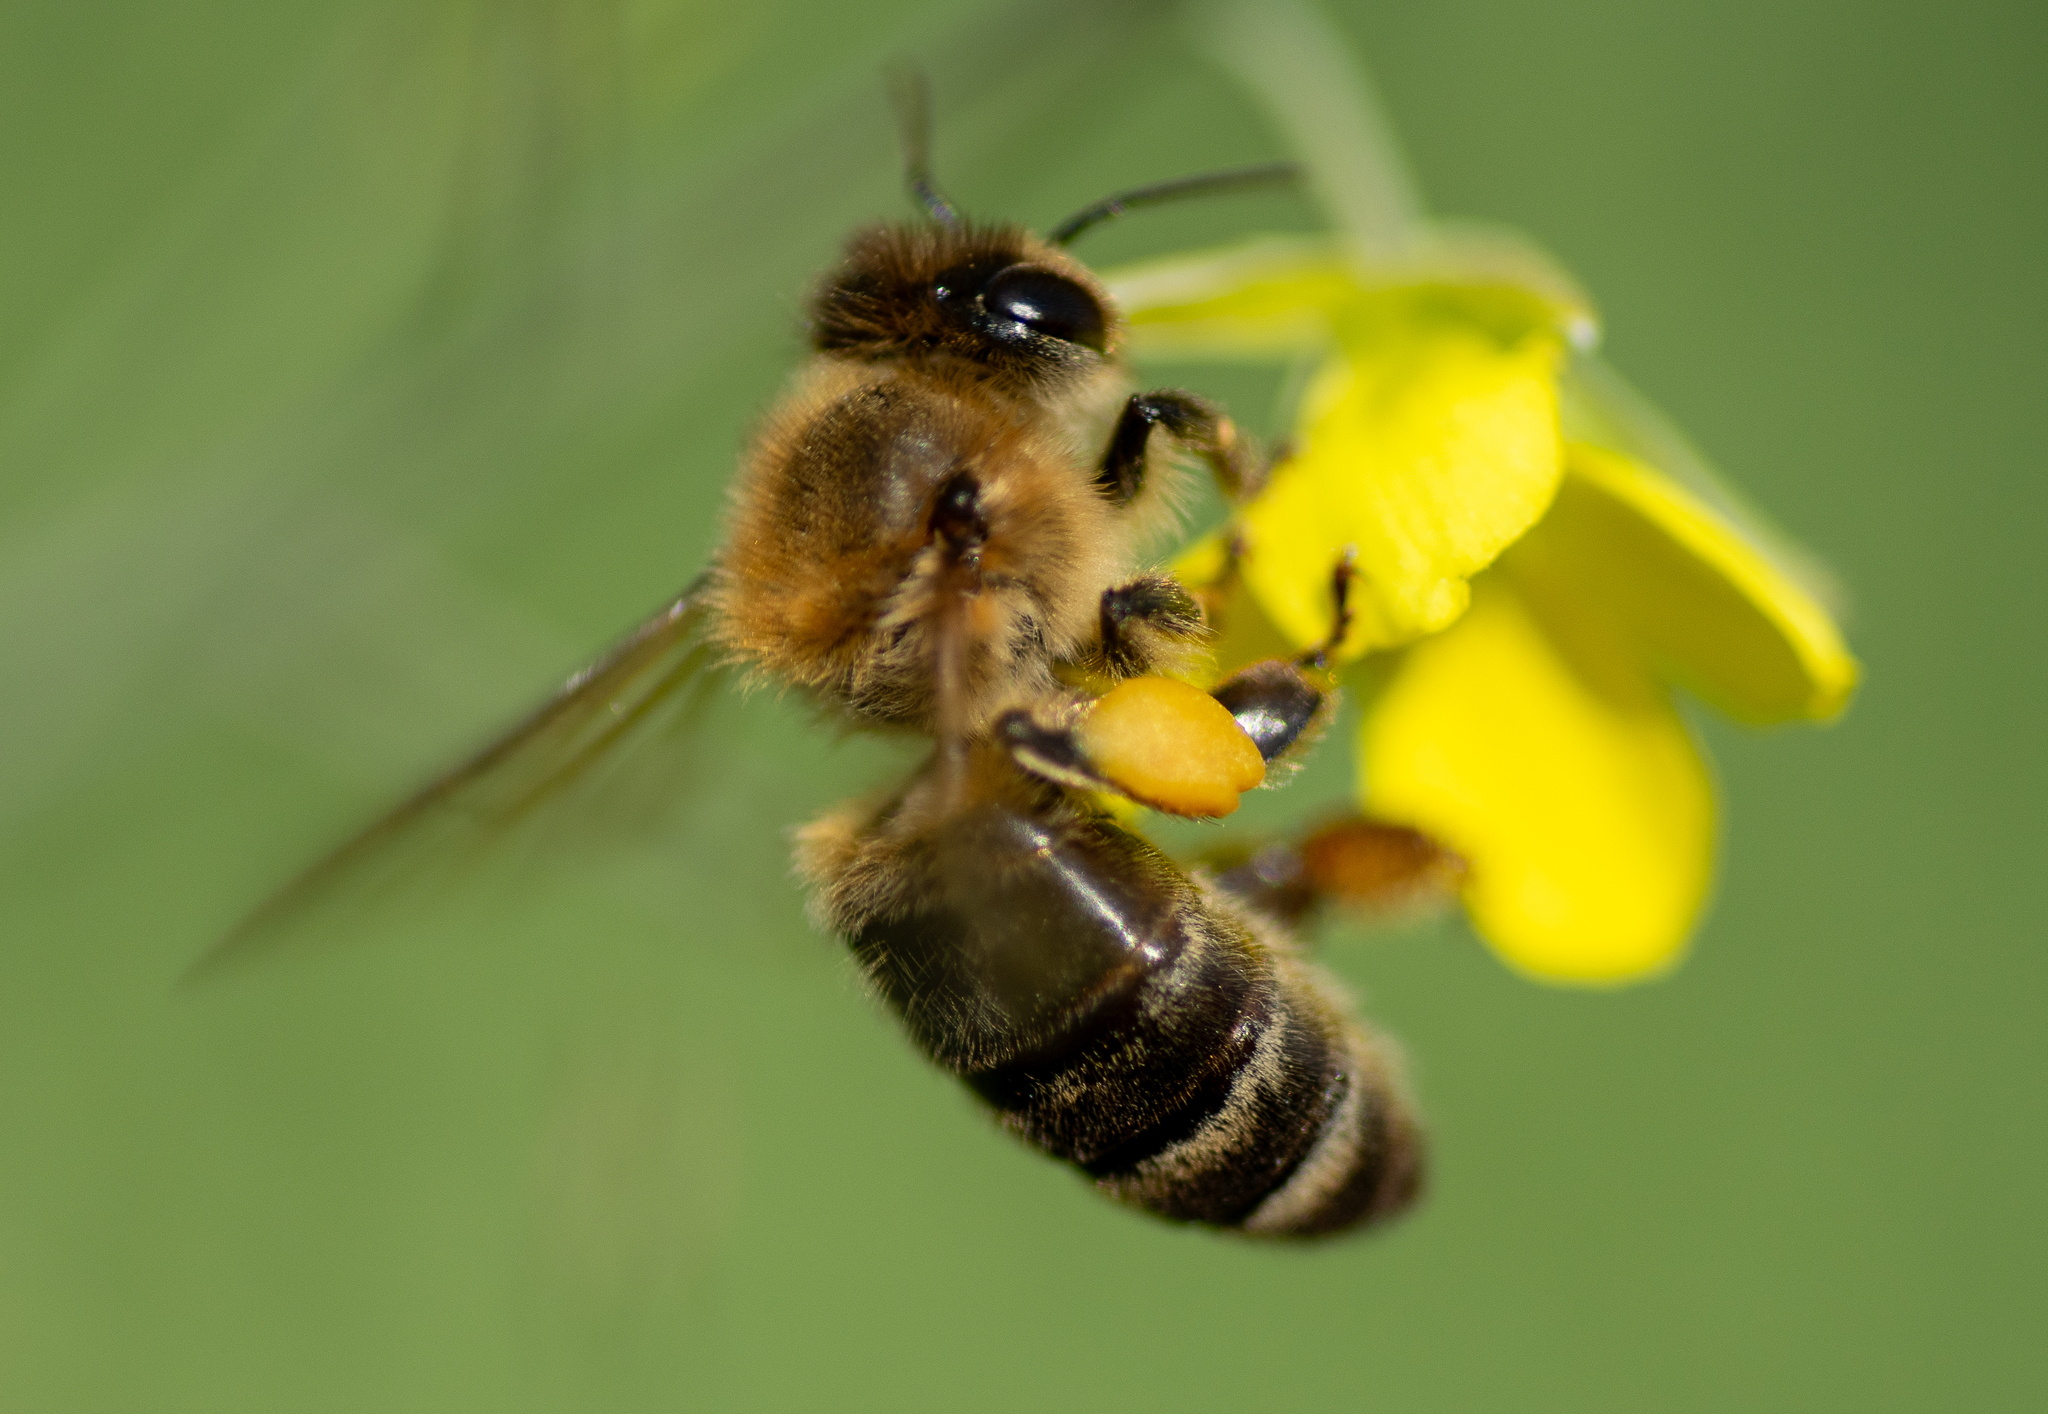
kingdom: Animalia
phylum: Arthropoda
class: Insecta
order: Hymenoptera
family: Apidae
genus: Apis
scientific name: Apis mellifera
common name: Honey bee
